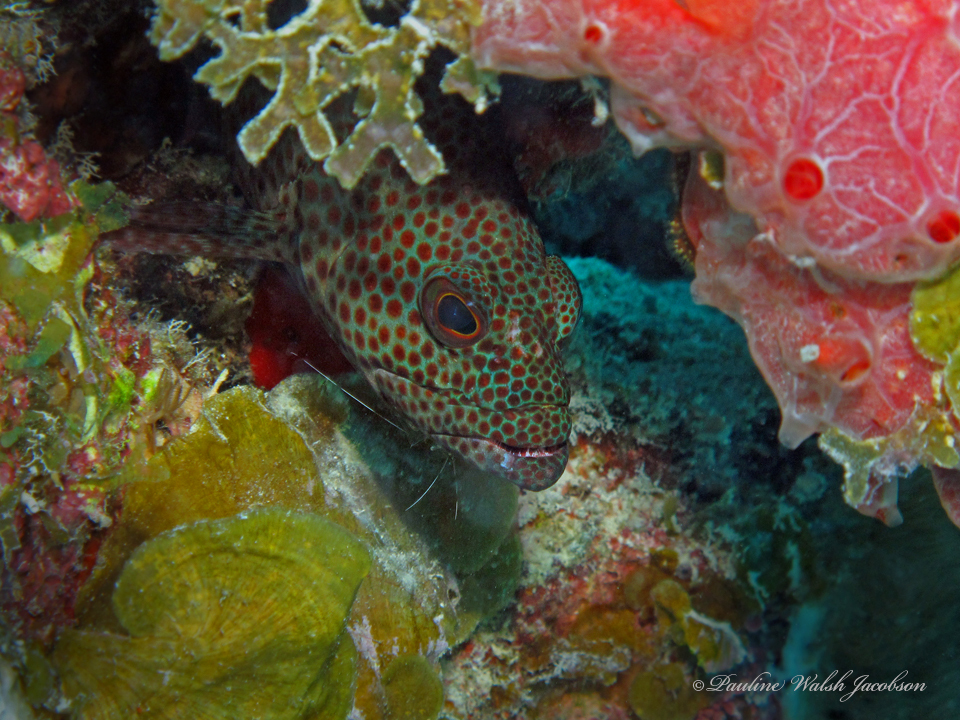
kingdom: Animalia
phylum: Chordata
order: Perciformes
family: Serranidae
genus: Cephalopholis
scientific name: Cephalopholis cruentata
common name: Graysby
